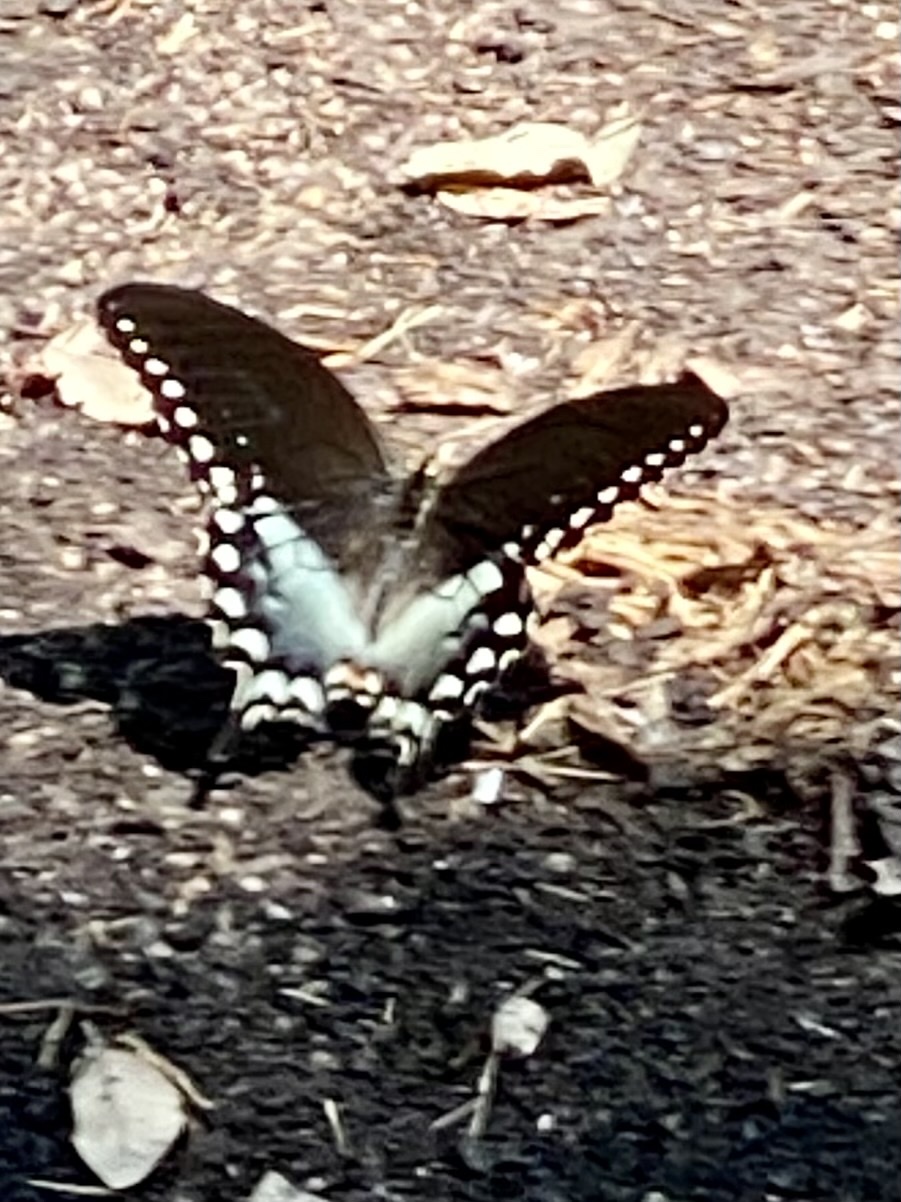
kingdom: Animalia
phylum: Arthropoda
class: Insecta
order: Lepidoptera
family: Papilionidae
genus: Papilio
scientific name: Papilio troilus
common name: Spicebush swallowtail
